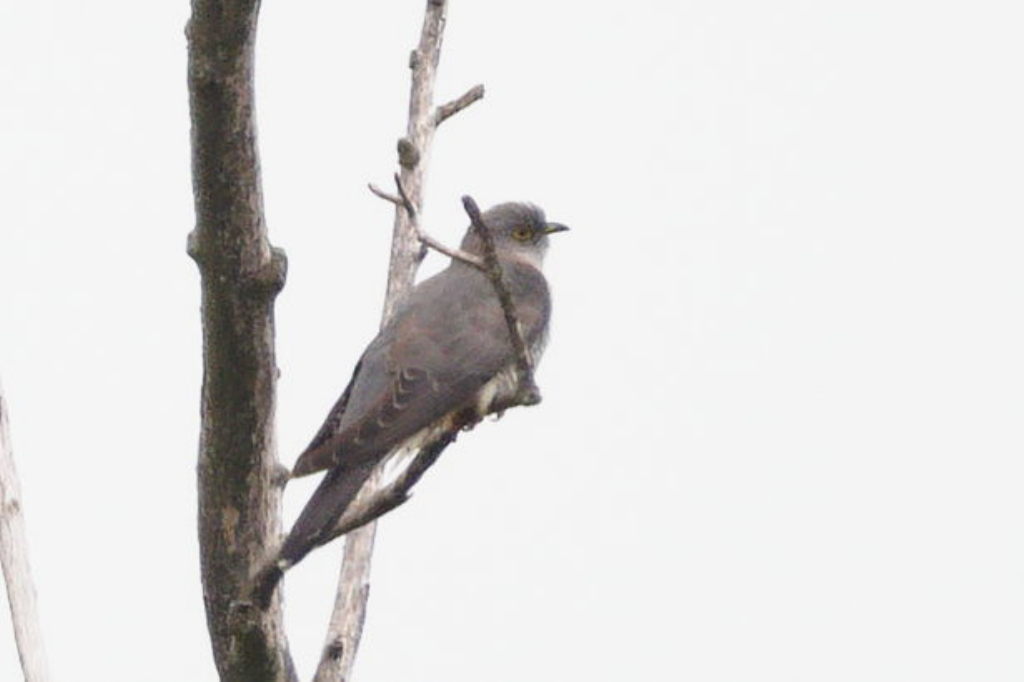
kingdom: Animalia
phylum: Chordata
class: Aves
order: Cuculiformes
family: Cuculidae
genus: Cuculus
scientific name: Cuculus canorus
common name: Common cuckoo
